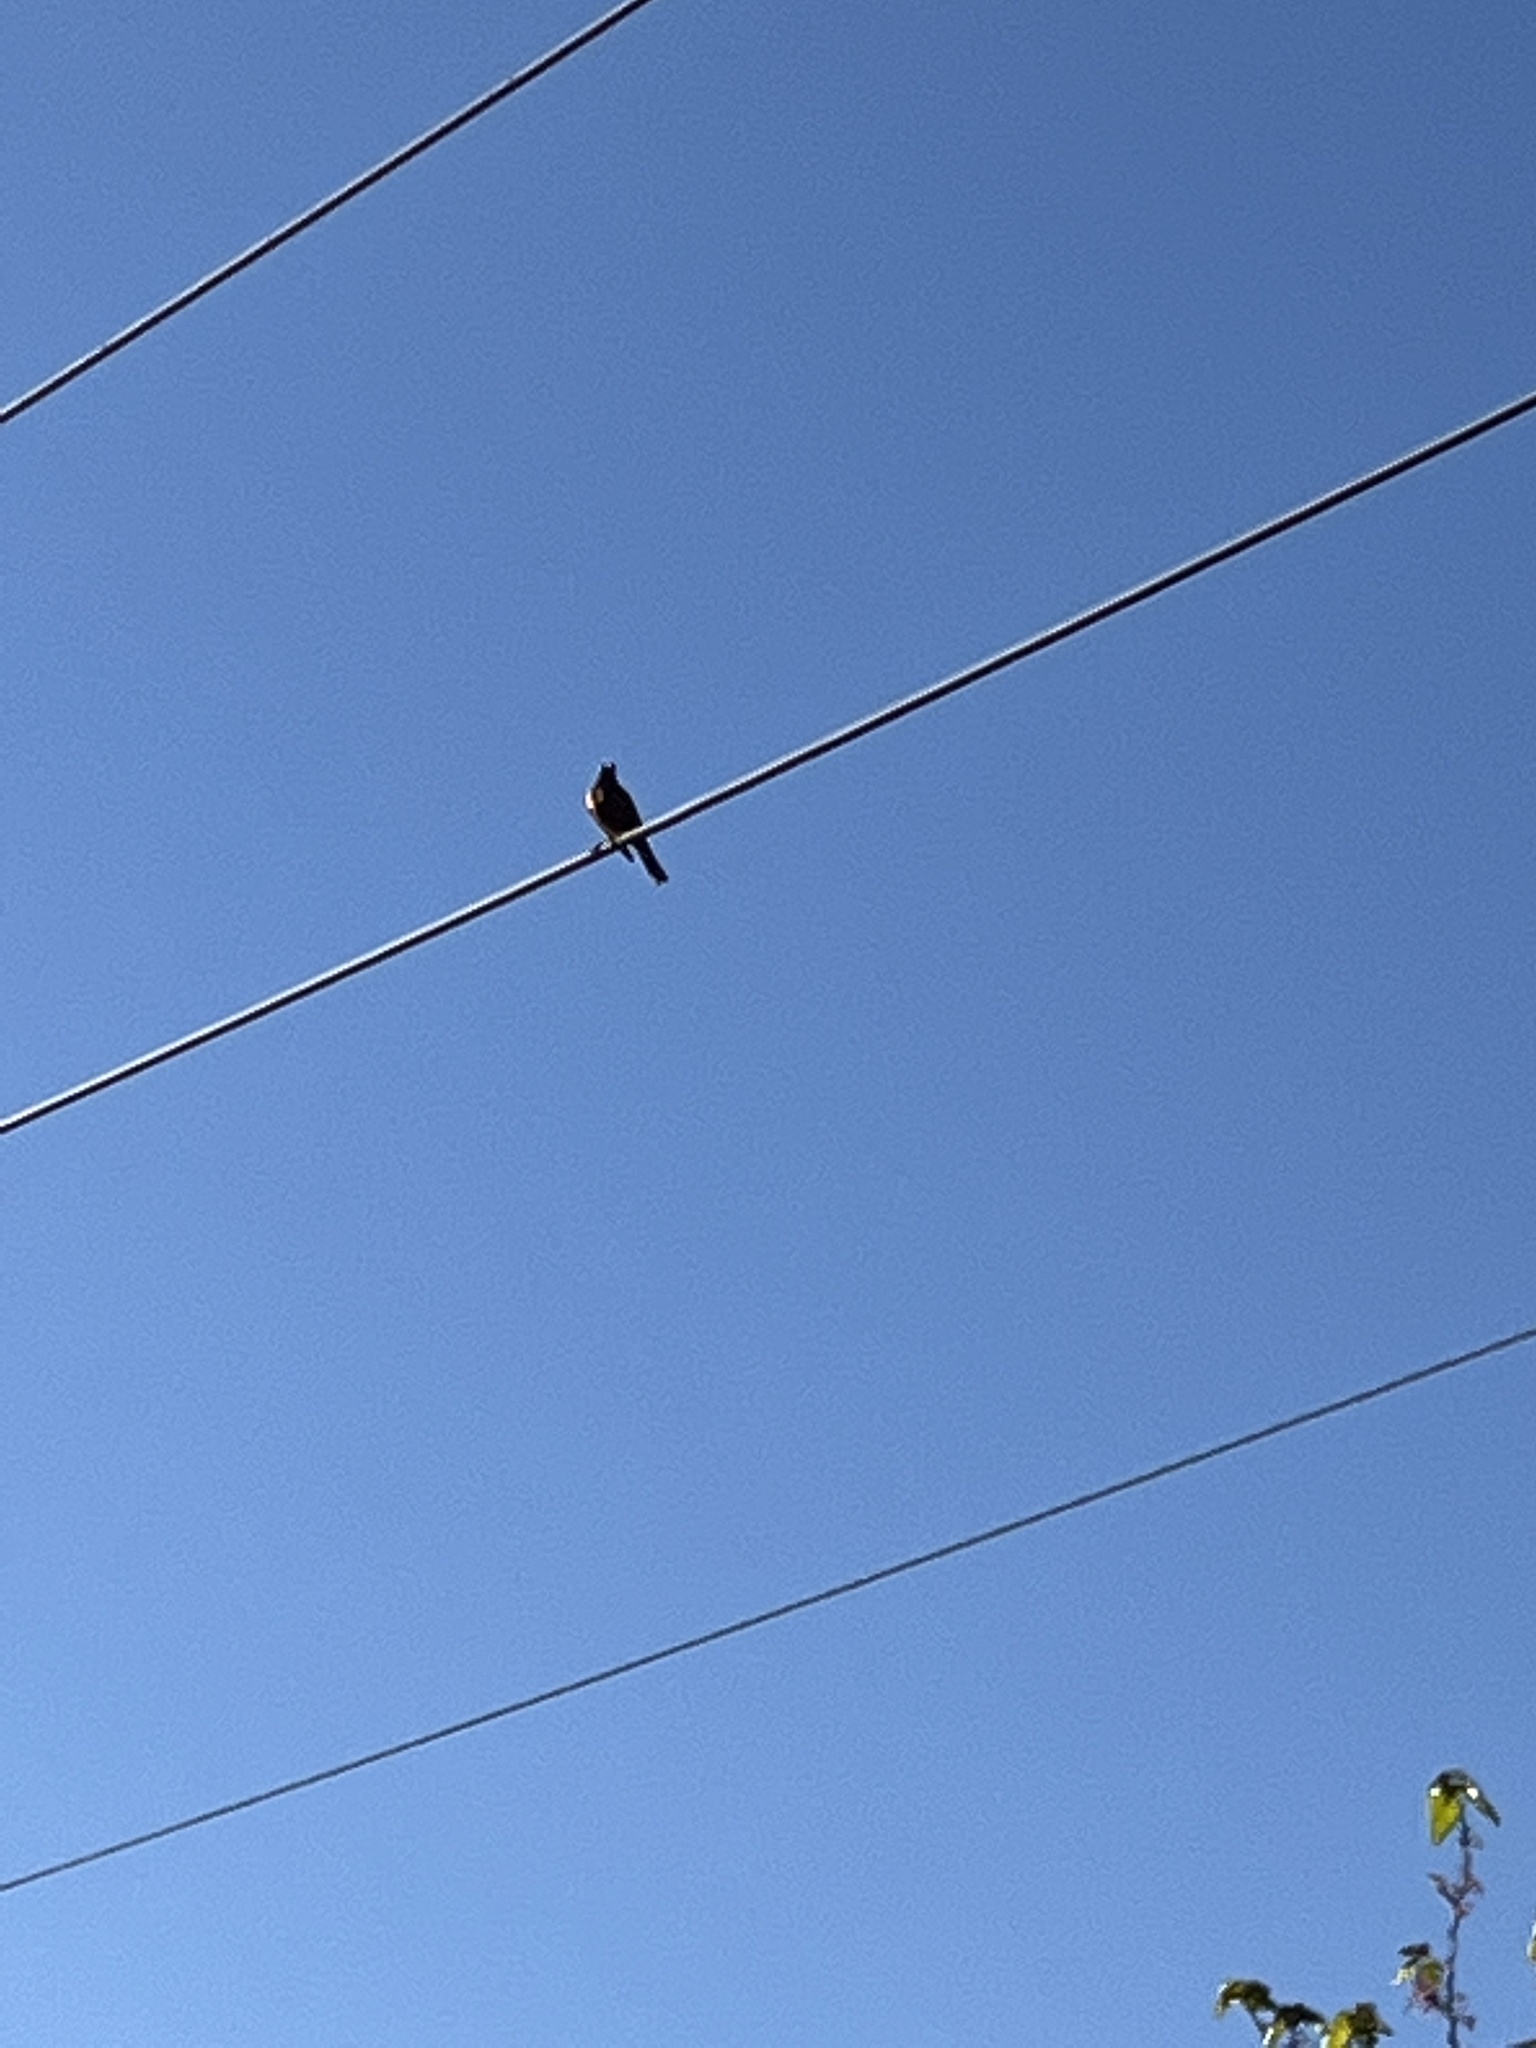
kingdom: Animalia
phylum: Chordata
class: Aves
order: Passeriformes
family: Turdidae
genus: Turdus
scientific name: Turdus migratorius
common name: American robin
